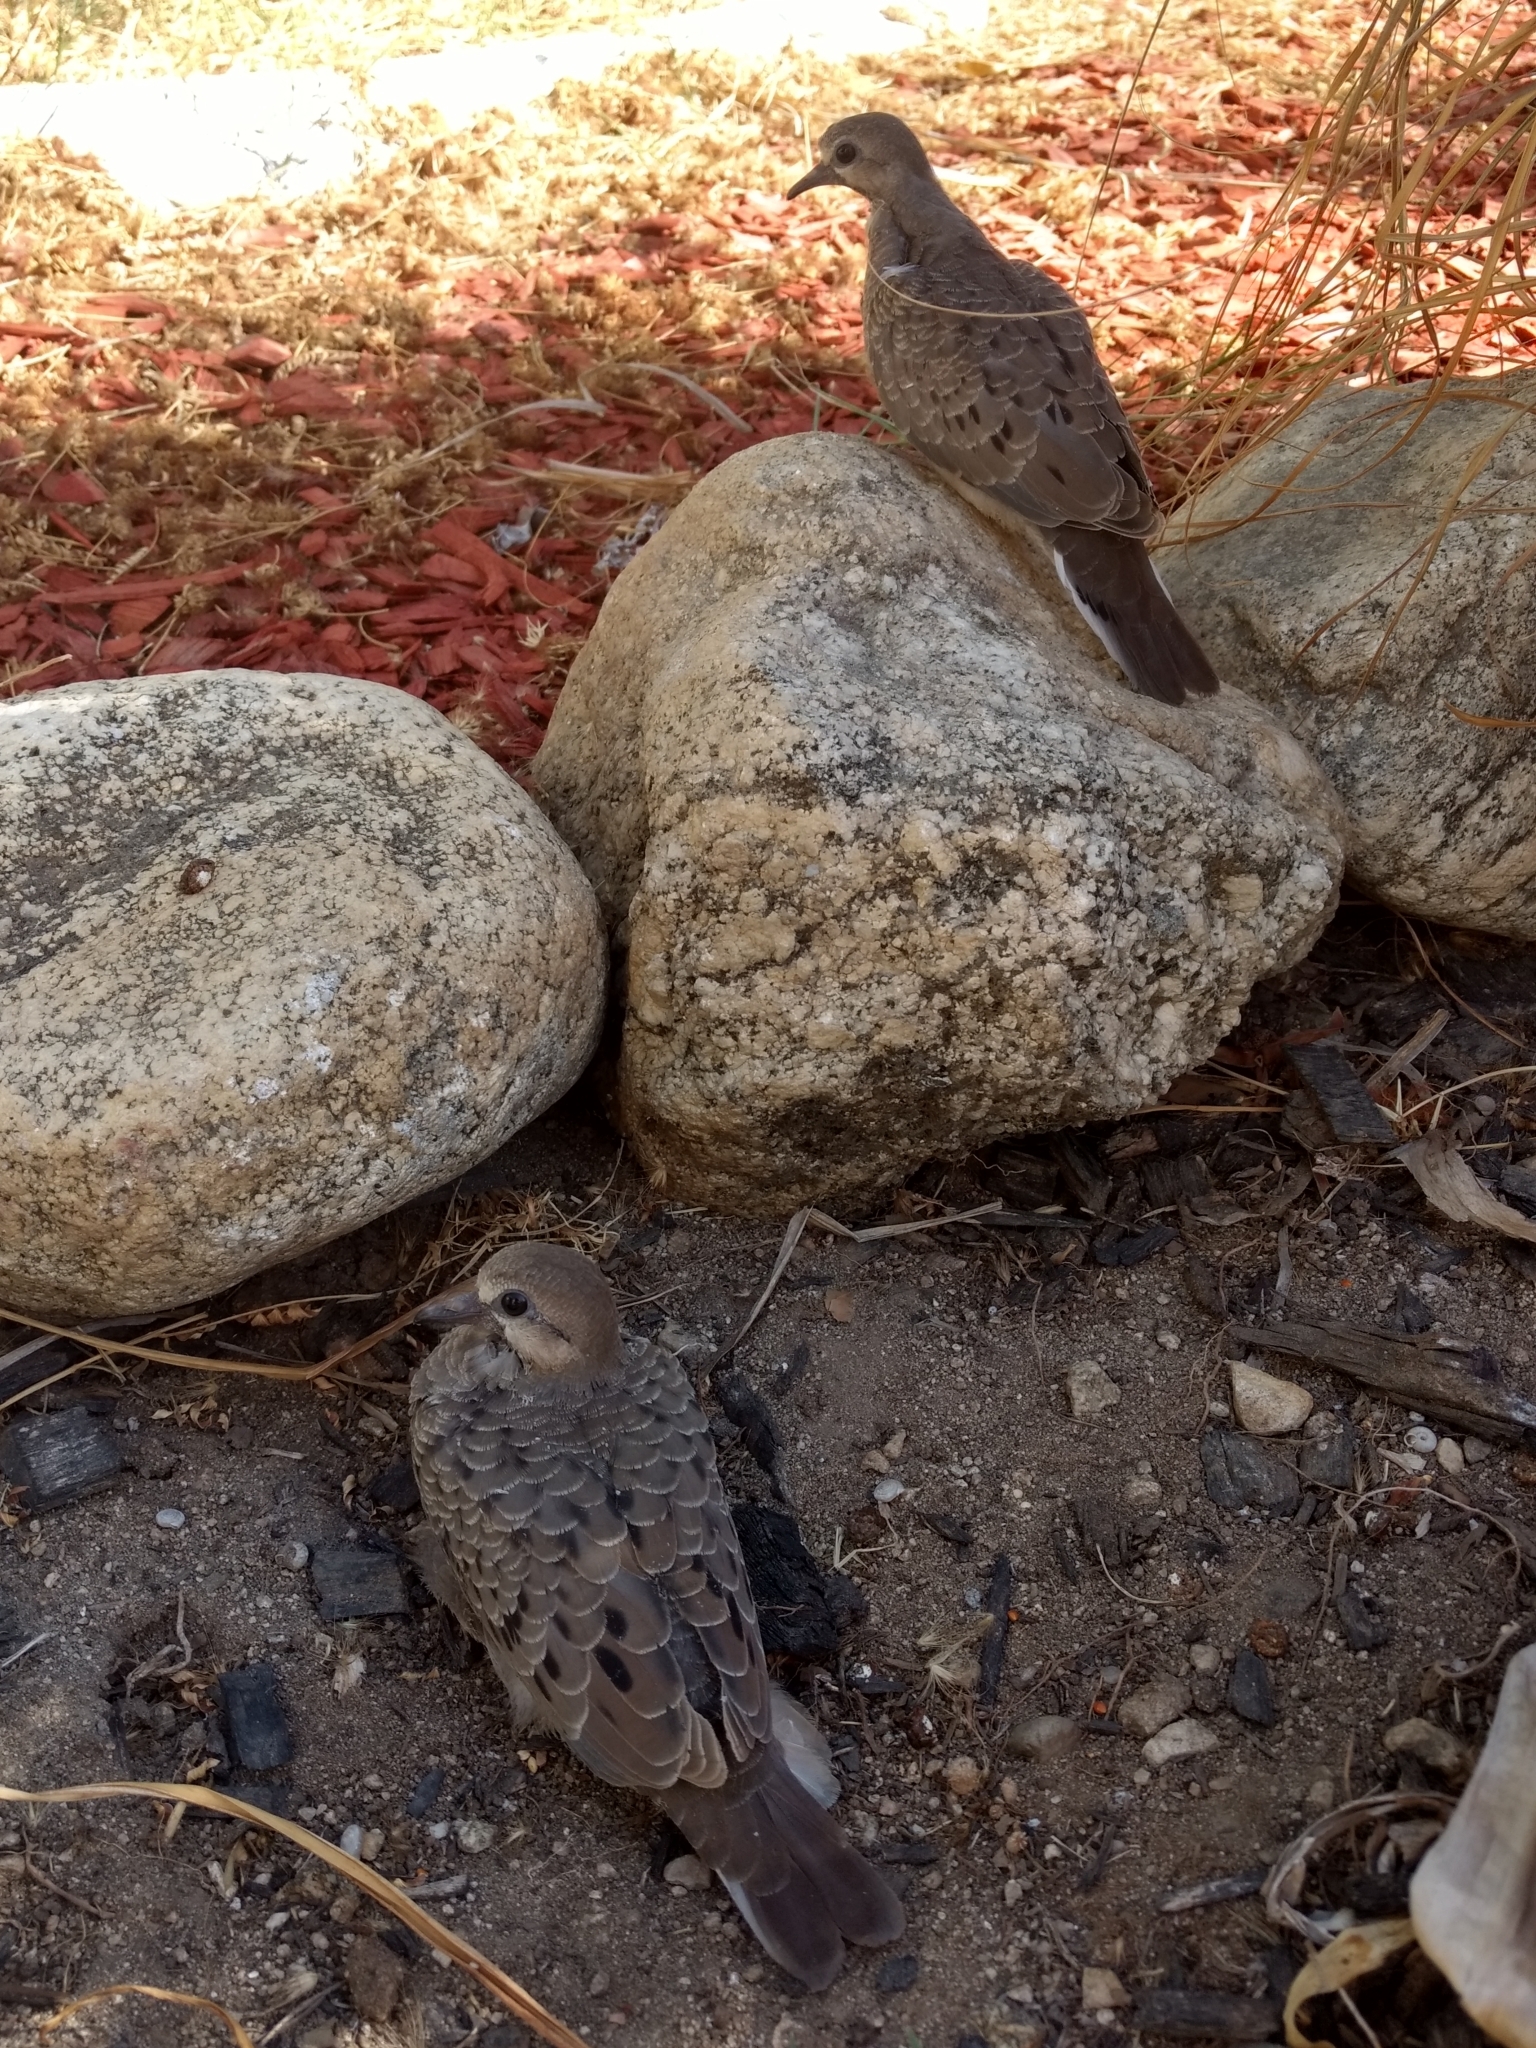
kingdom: Animalia
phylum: Chordata
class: Aves
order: Columbiformes
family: Columbidae
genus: Zenaida
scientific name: Zenaida macroura
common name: Mourning dove
